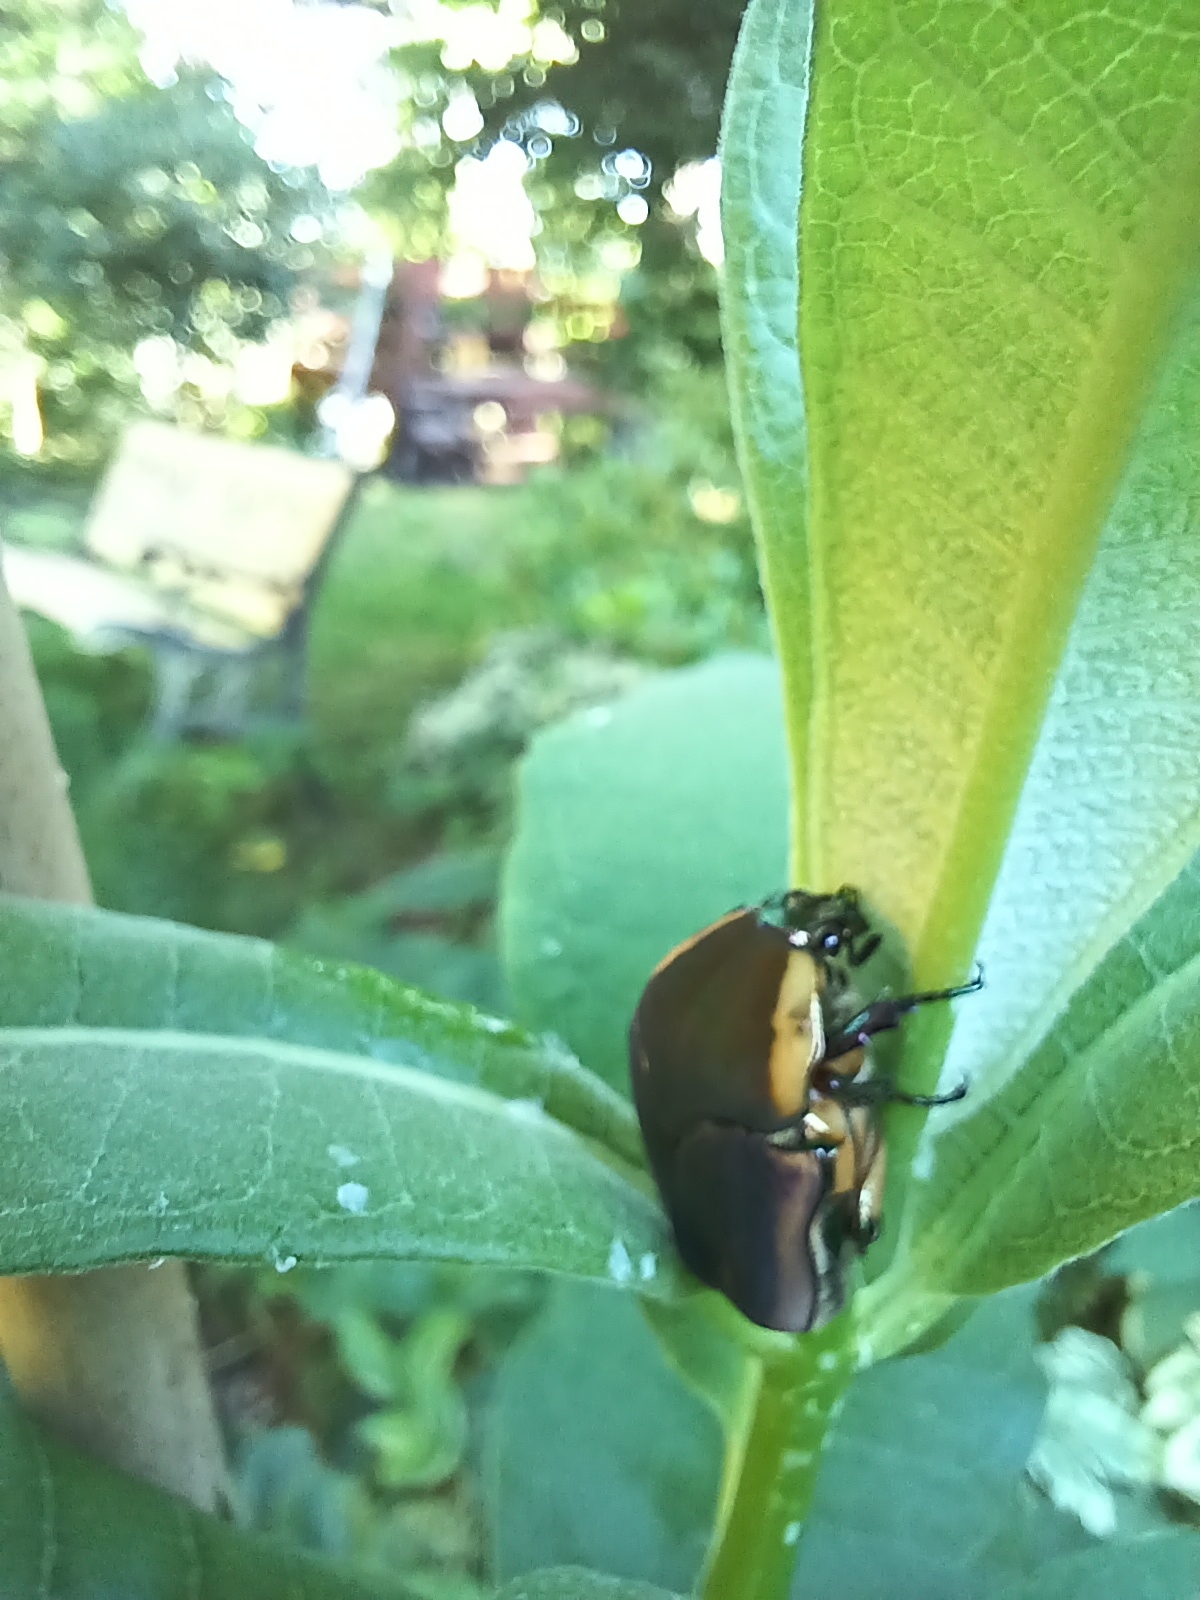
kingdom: Animalia
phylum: Arthropoda
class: Insecta
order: Coleoptera
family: Scarabaeidae
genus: Cotinis
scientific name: Cotinis nitida
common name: Common green june beetle
